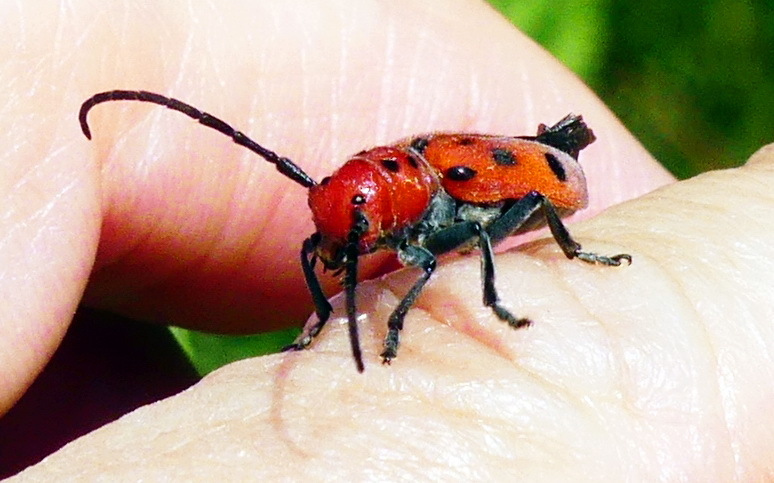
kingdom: Animalia
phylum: Arthropoda
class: Insecta
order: Coleoptera
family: Cerambycidae
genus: Tetraopes
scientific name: Tetraopes tetrophthalmus
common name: Red milkweed beetle
